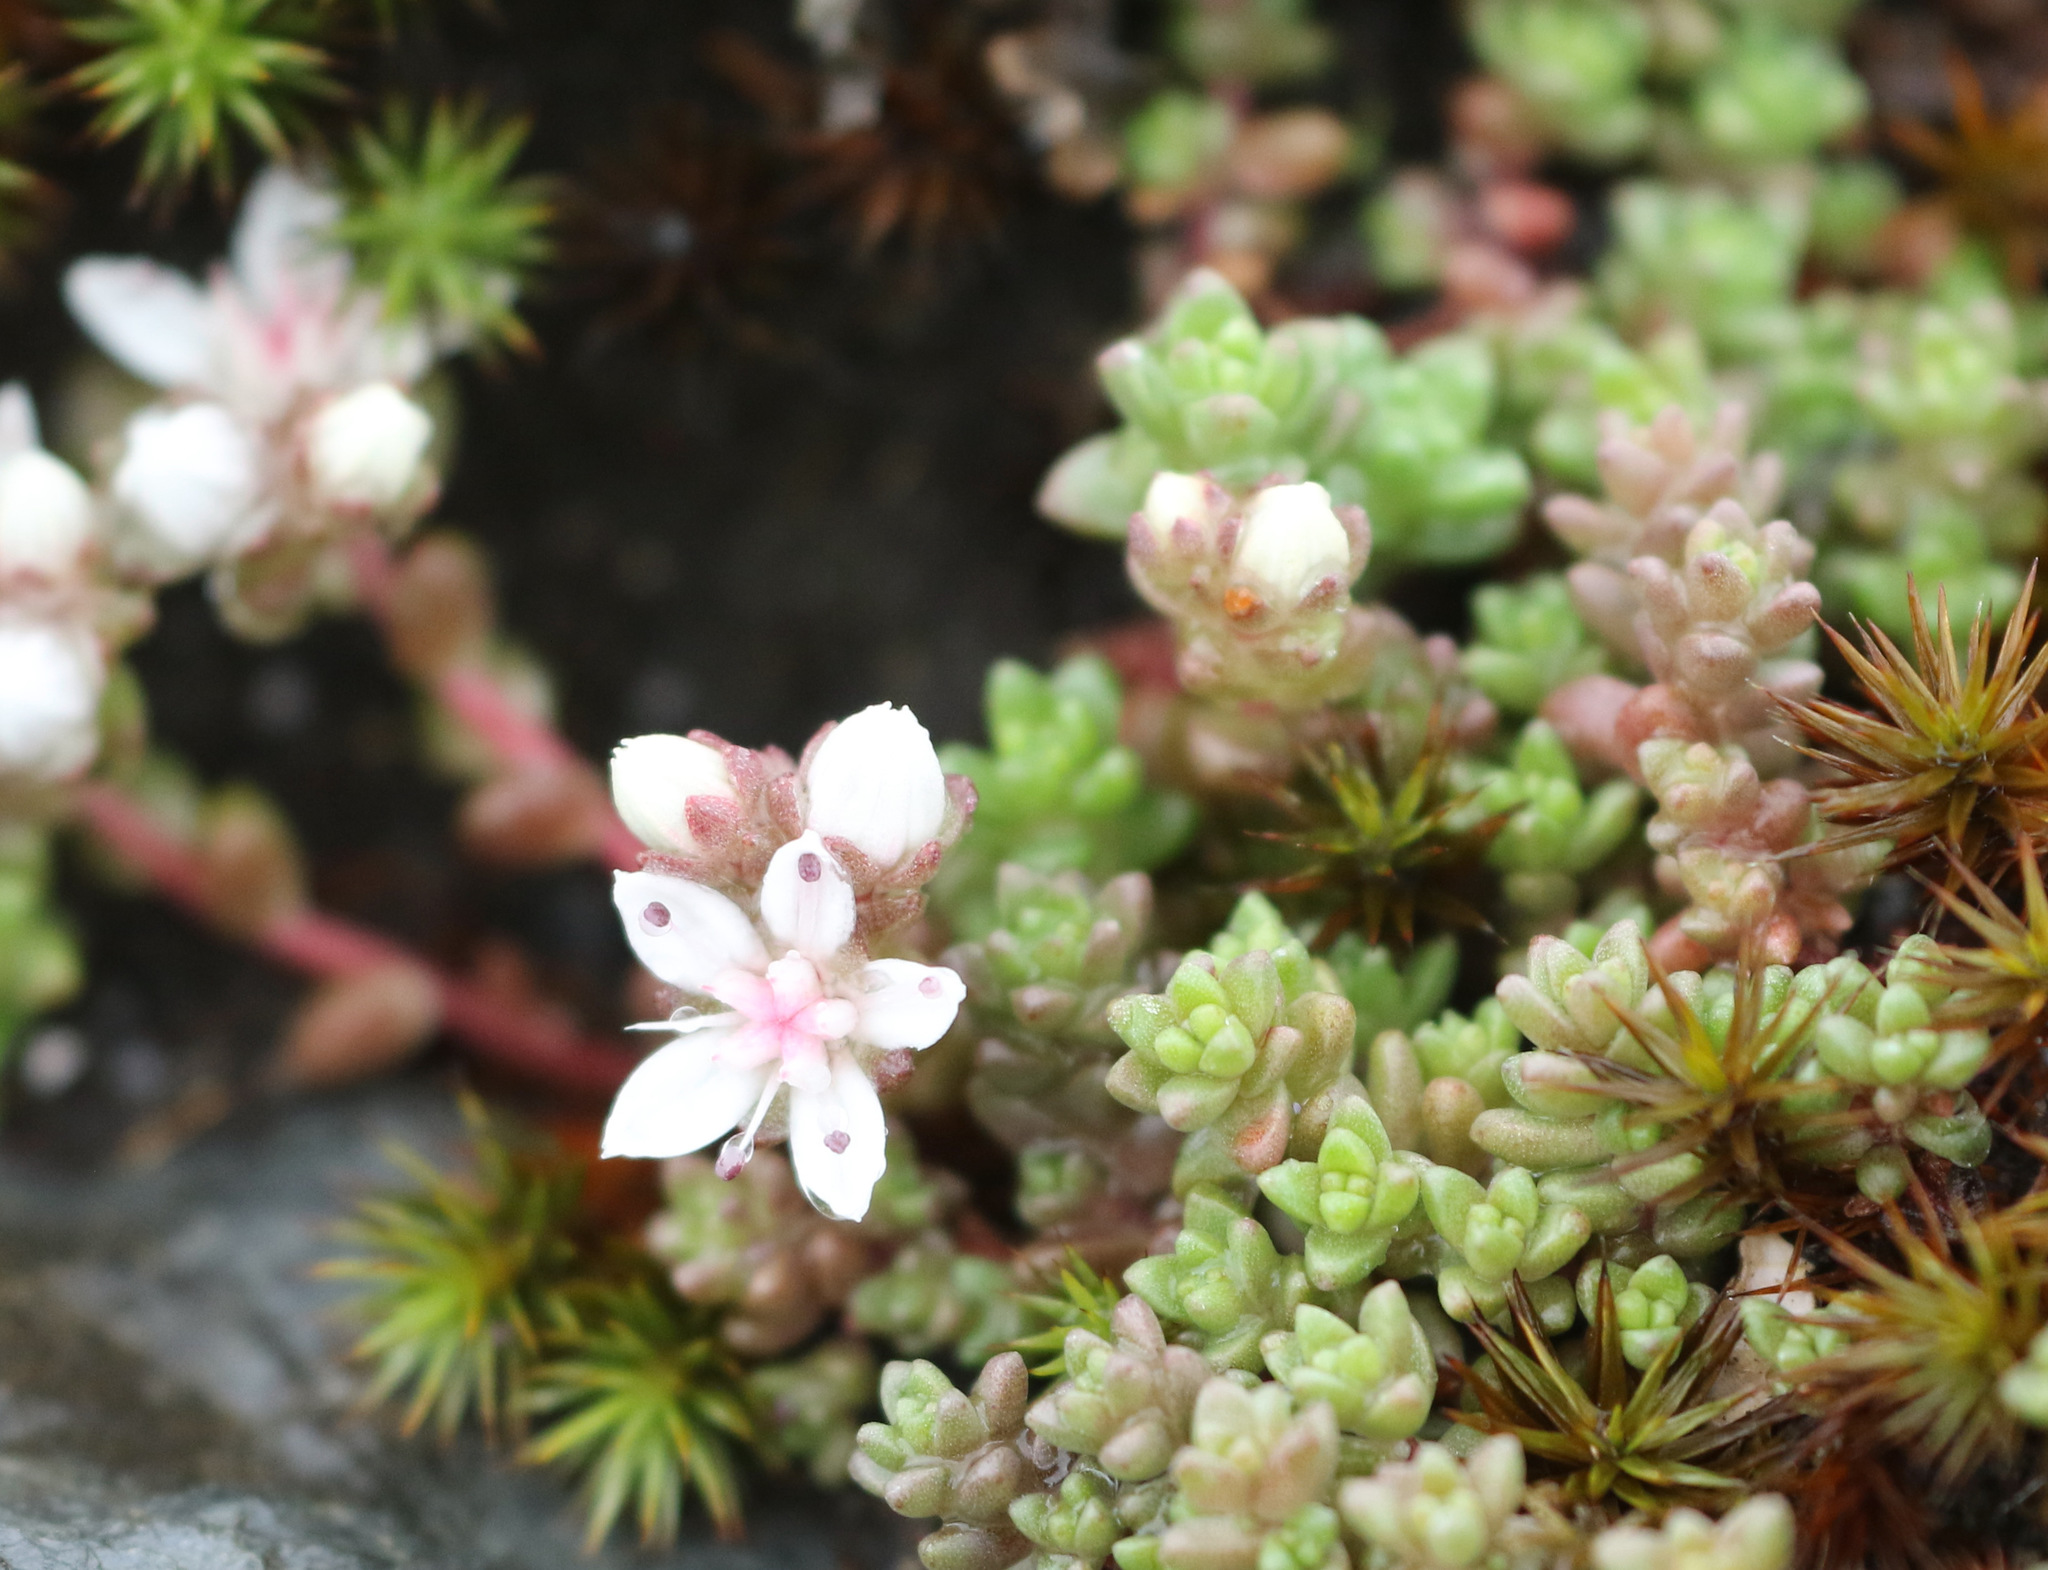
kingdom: Plantae
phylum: Tracheophyta
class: Magnoliopsida
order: Saxifragales
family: Crassulaceae
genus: Sedum
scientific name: Sedum anglicum
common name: English stonecrop
